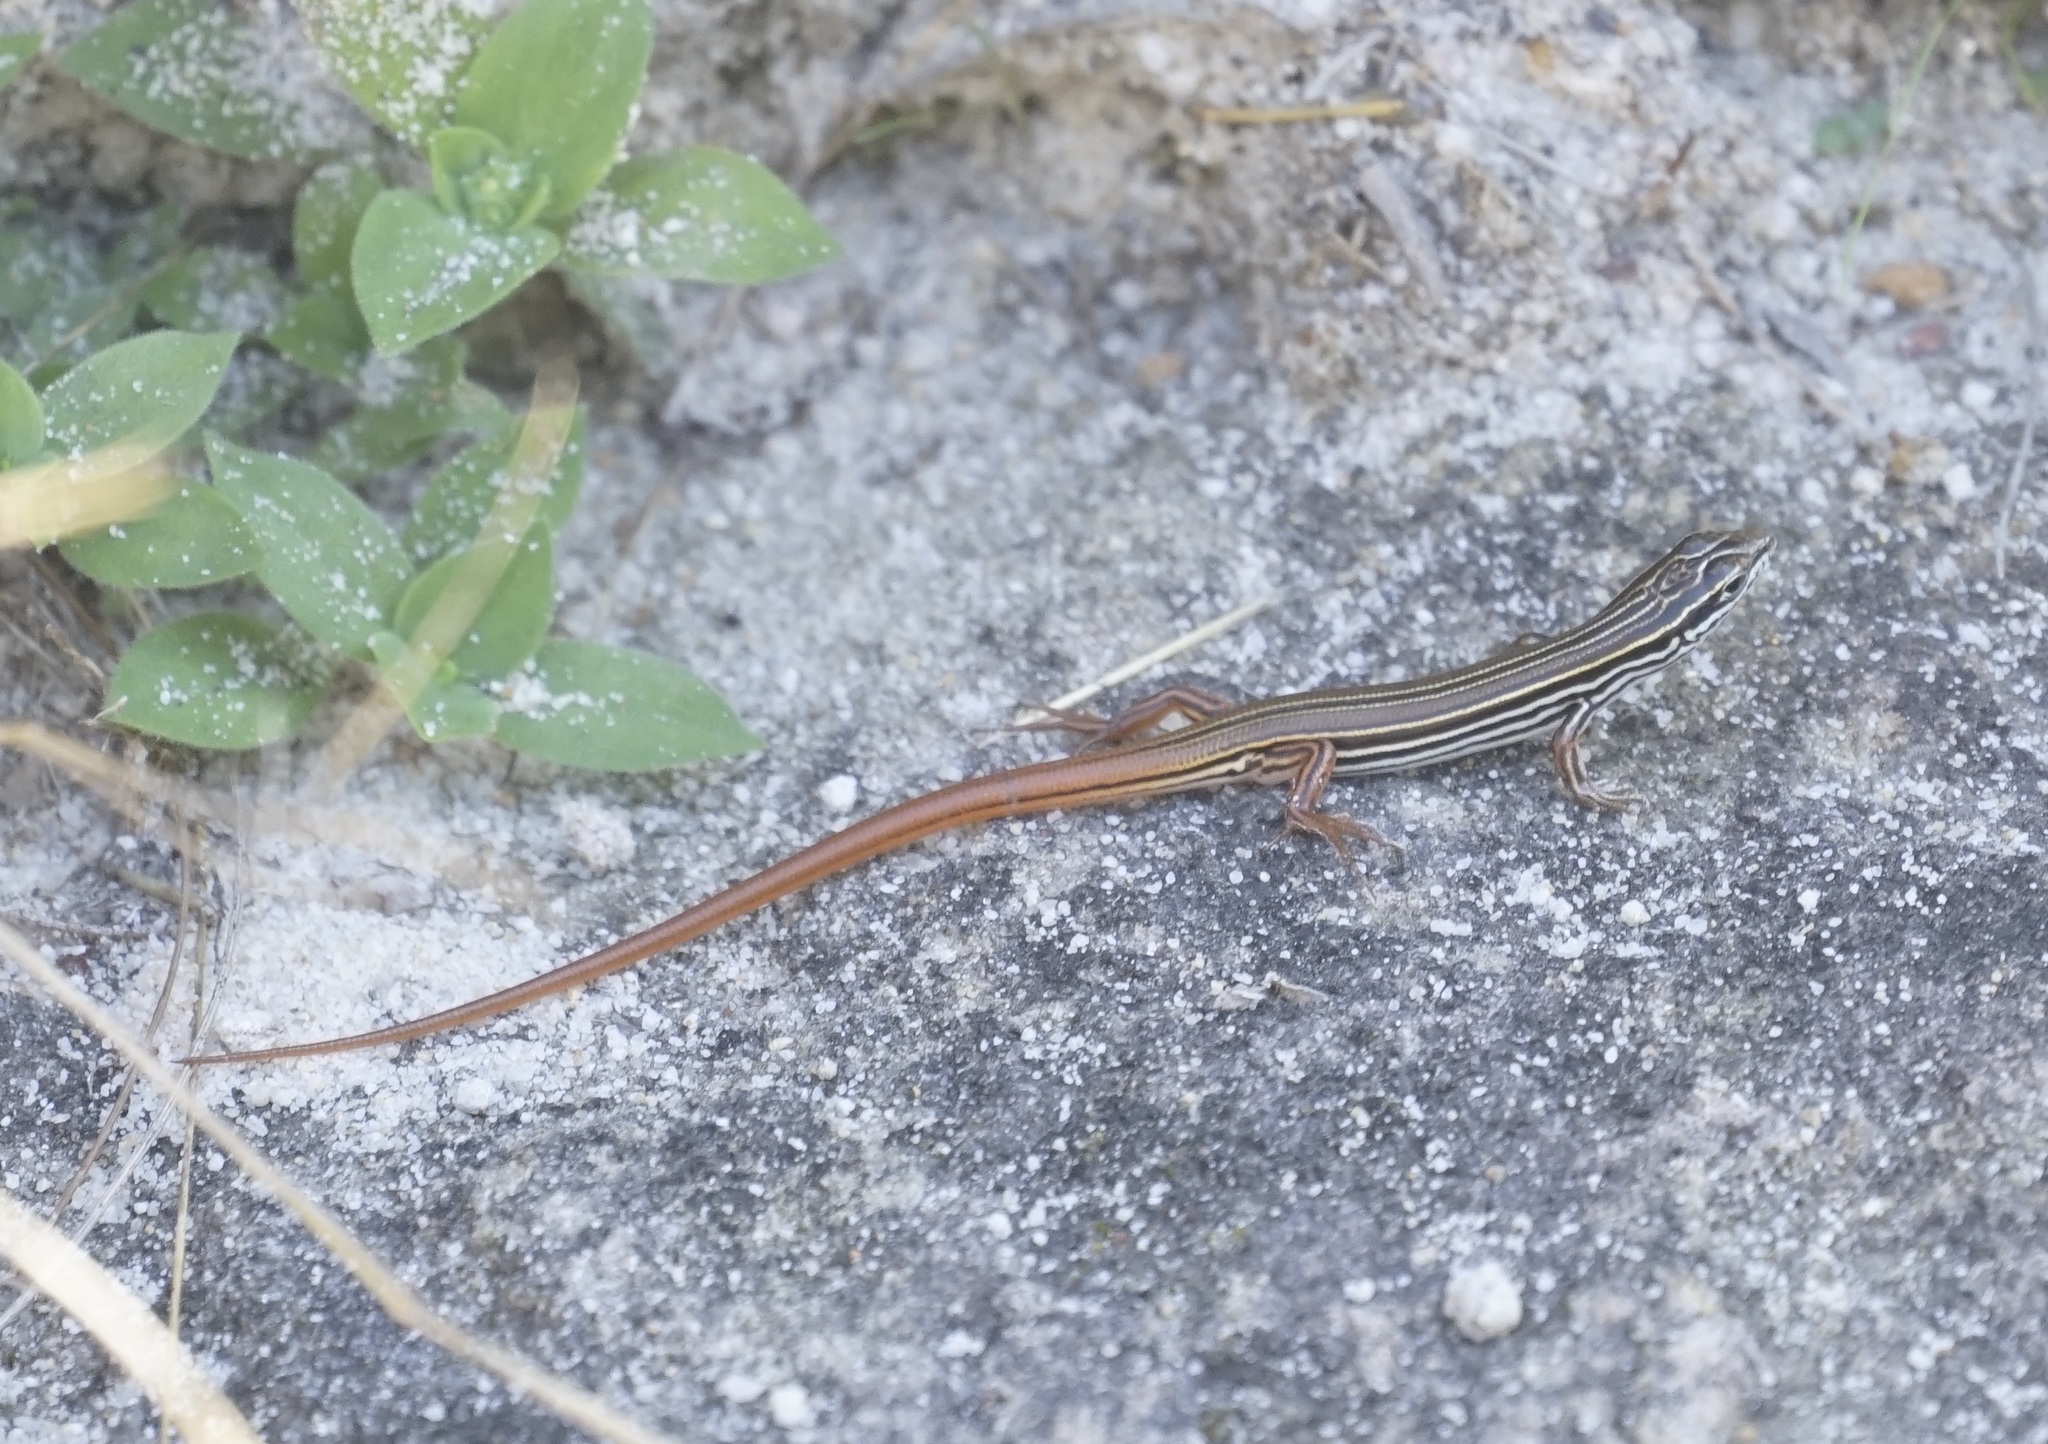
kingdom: Animalia
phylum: Chordata
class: Squamata
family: Scincidae
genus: Ctenotus
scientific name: Ctenotus taeniolatus
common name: Copper-tailed skink
